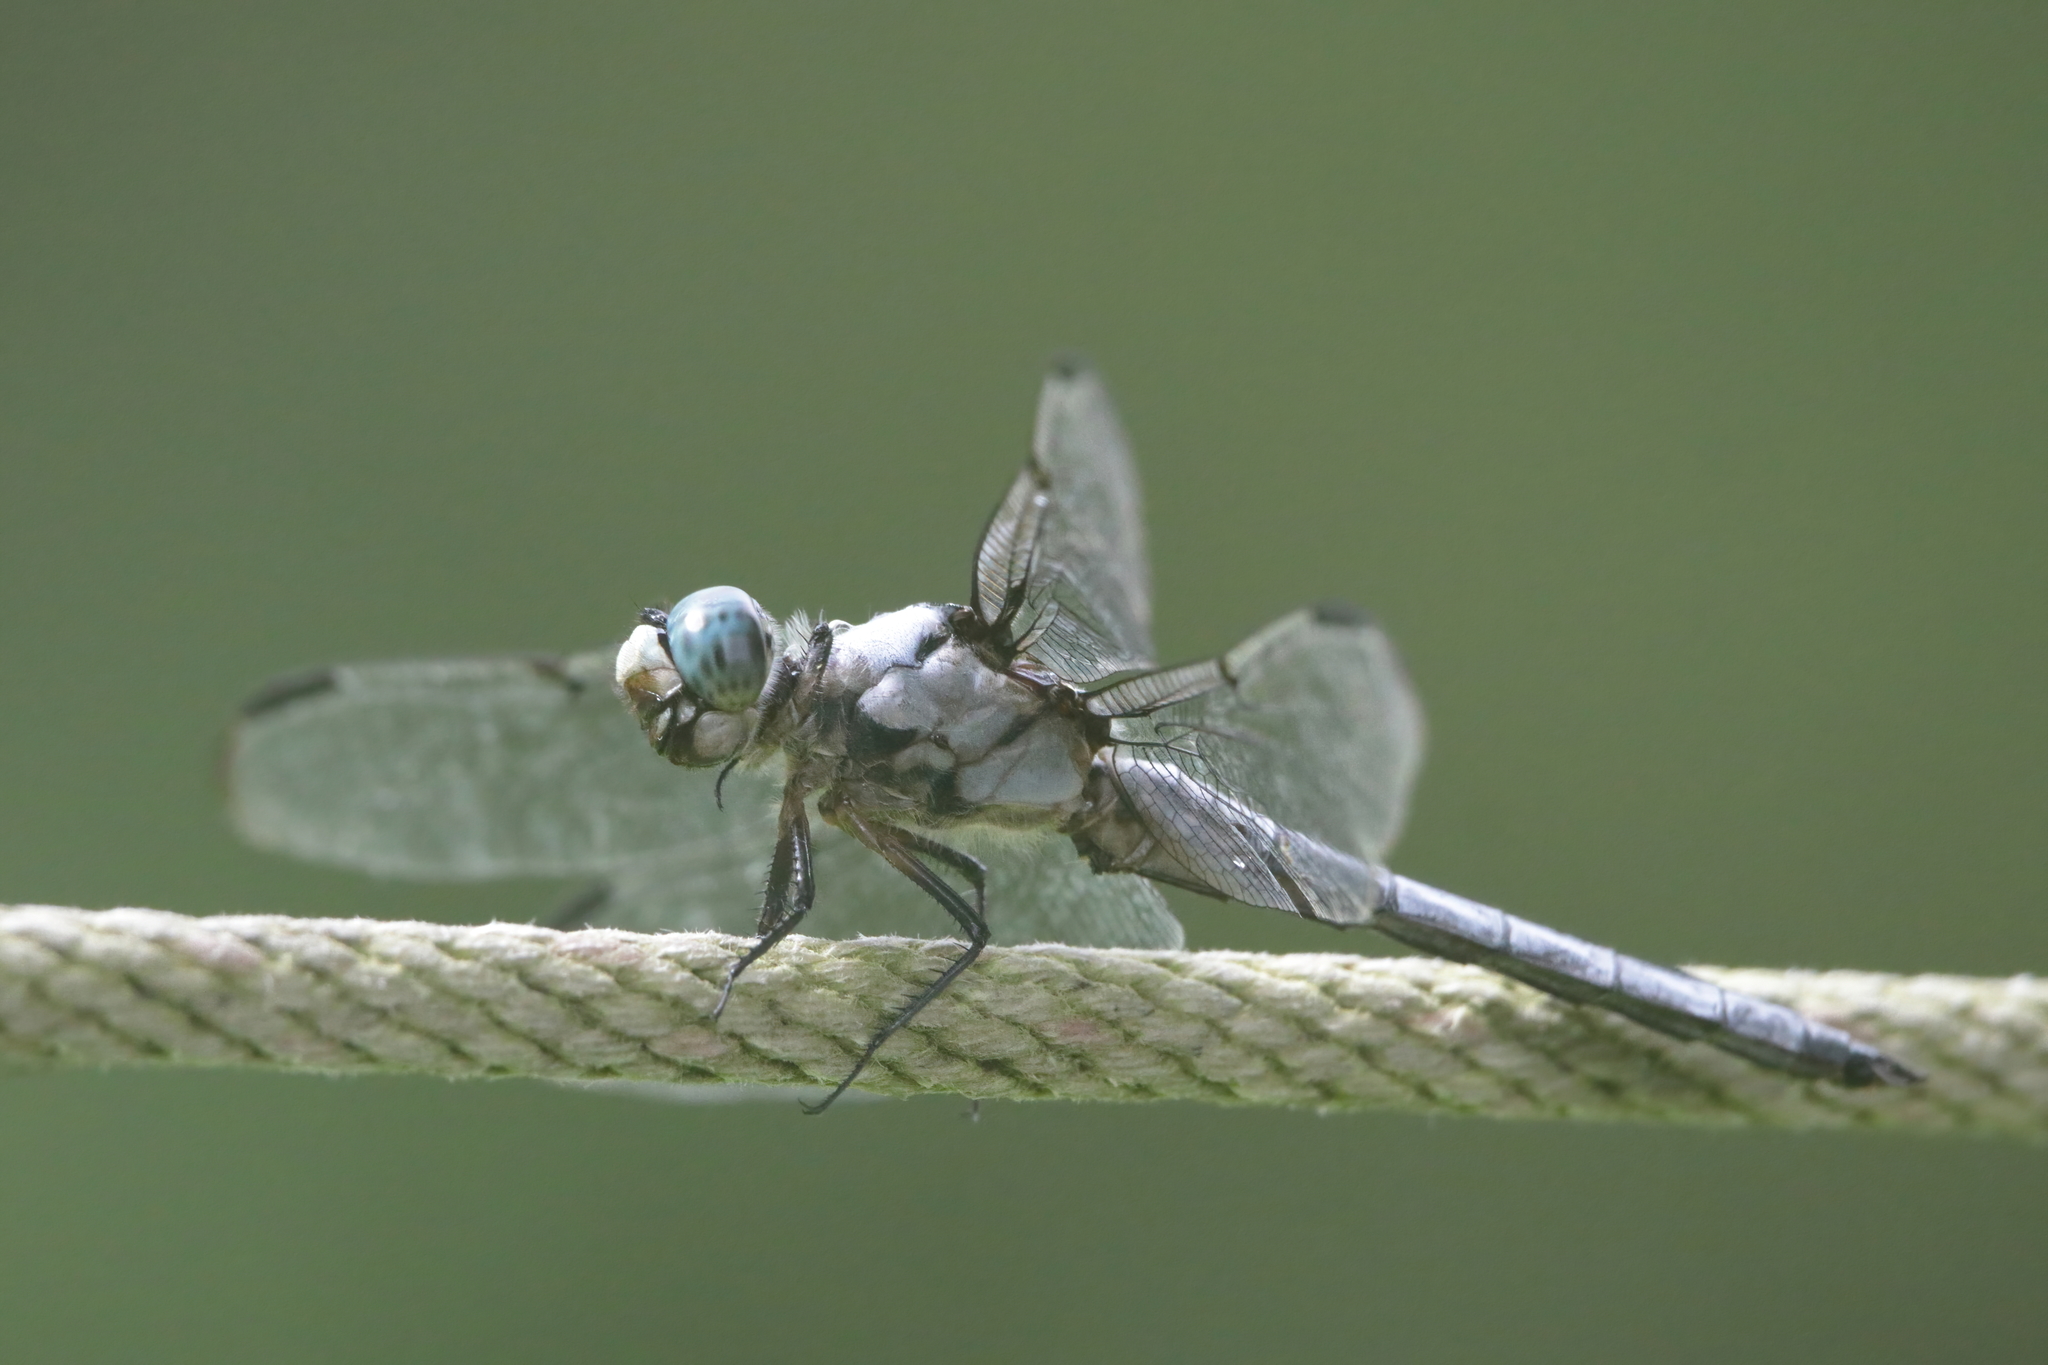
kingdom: Animalia
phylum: Arthropoda
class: Insecta
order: Odonata
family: Libellulidae
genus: Libellula
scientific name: Libellula vibrans
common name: Great blue skimmer
